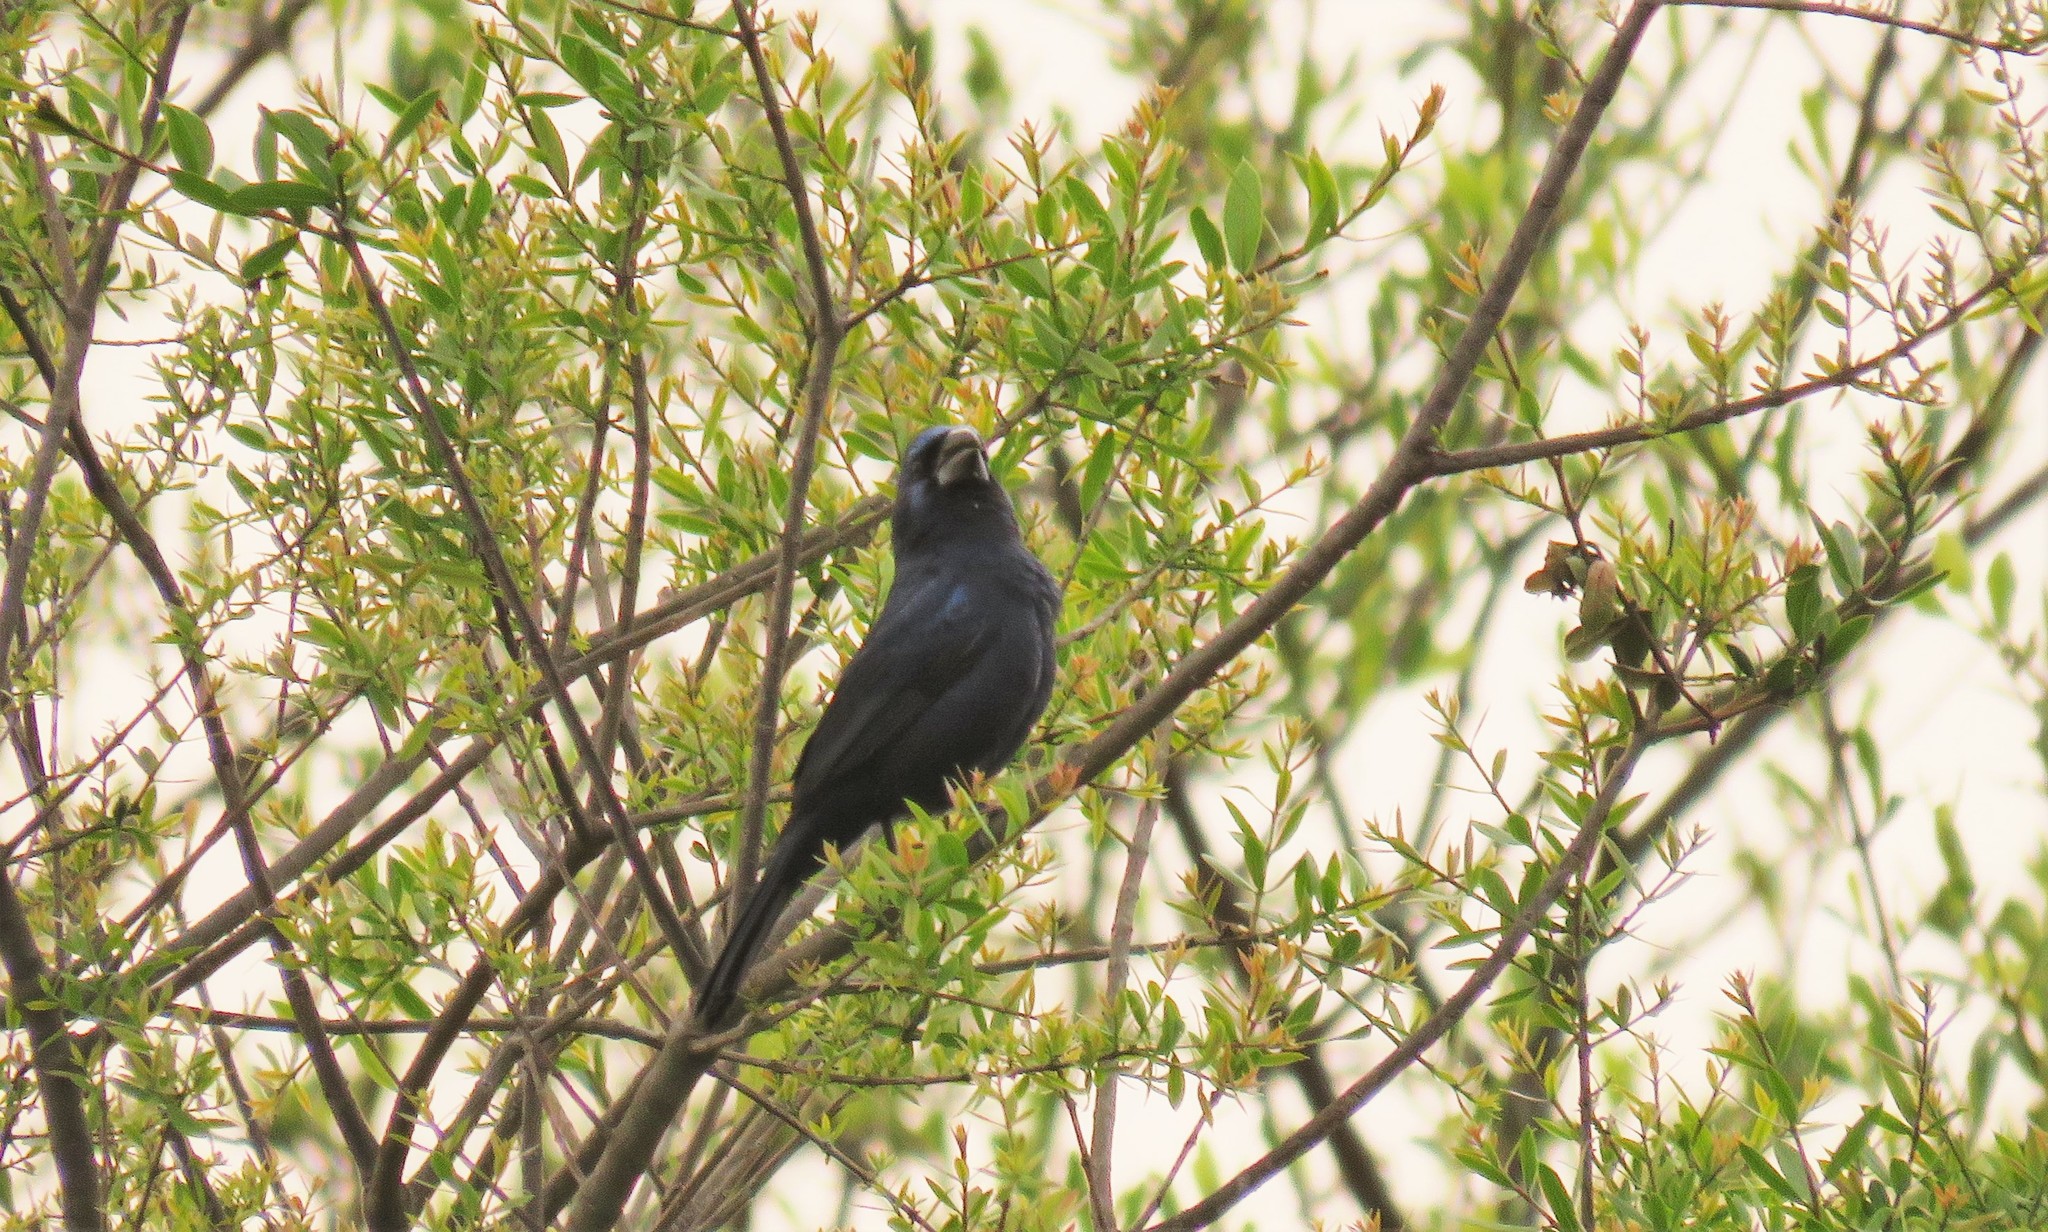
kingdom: Animalia
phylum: Chordata
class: Aves
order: Passeriformes
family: Cardinalidae
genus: Cyanoloxia
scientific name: Cyanoloxia brissonii
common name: Ultramarine grosbeak
